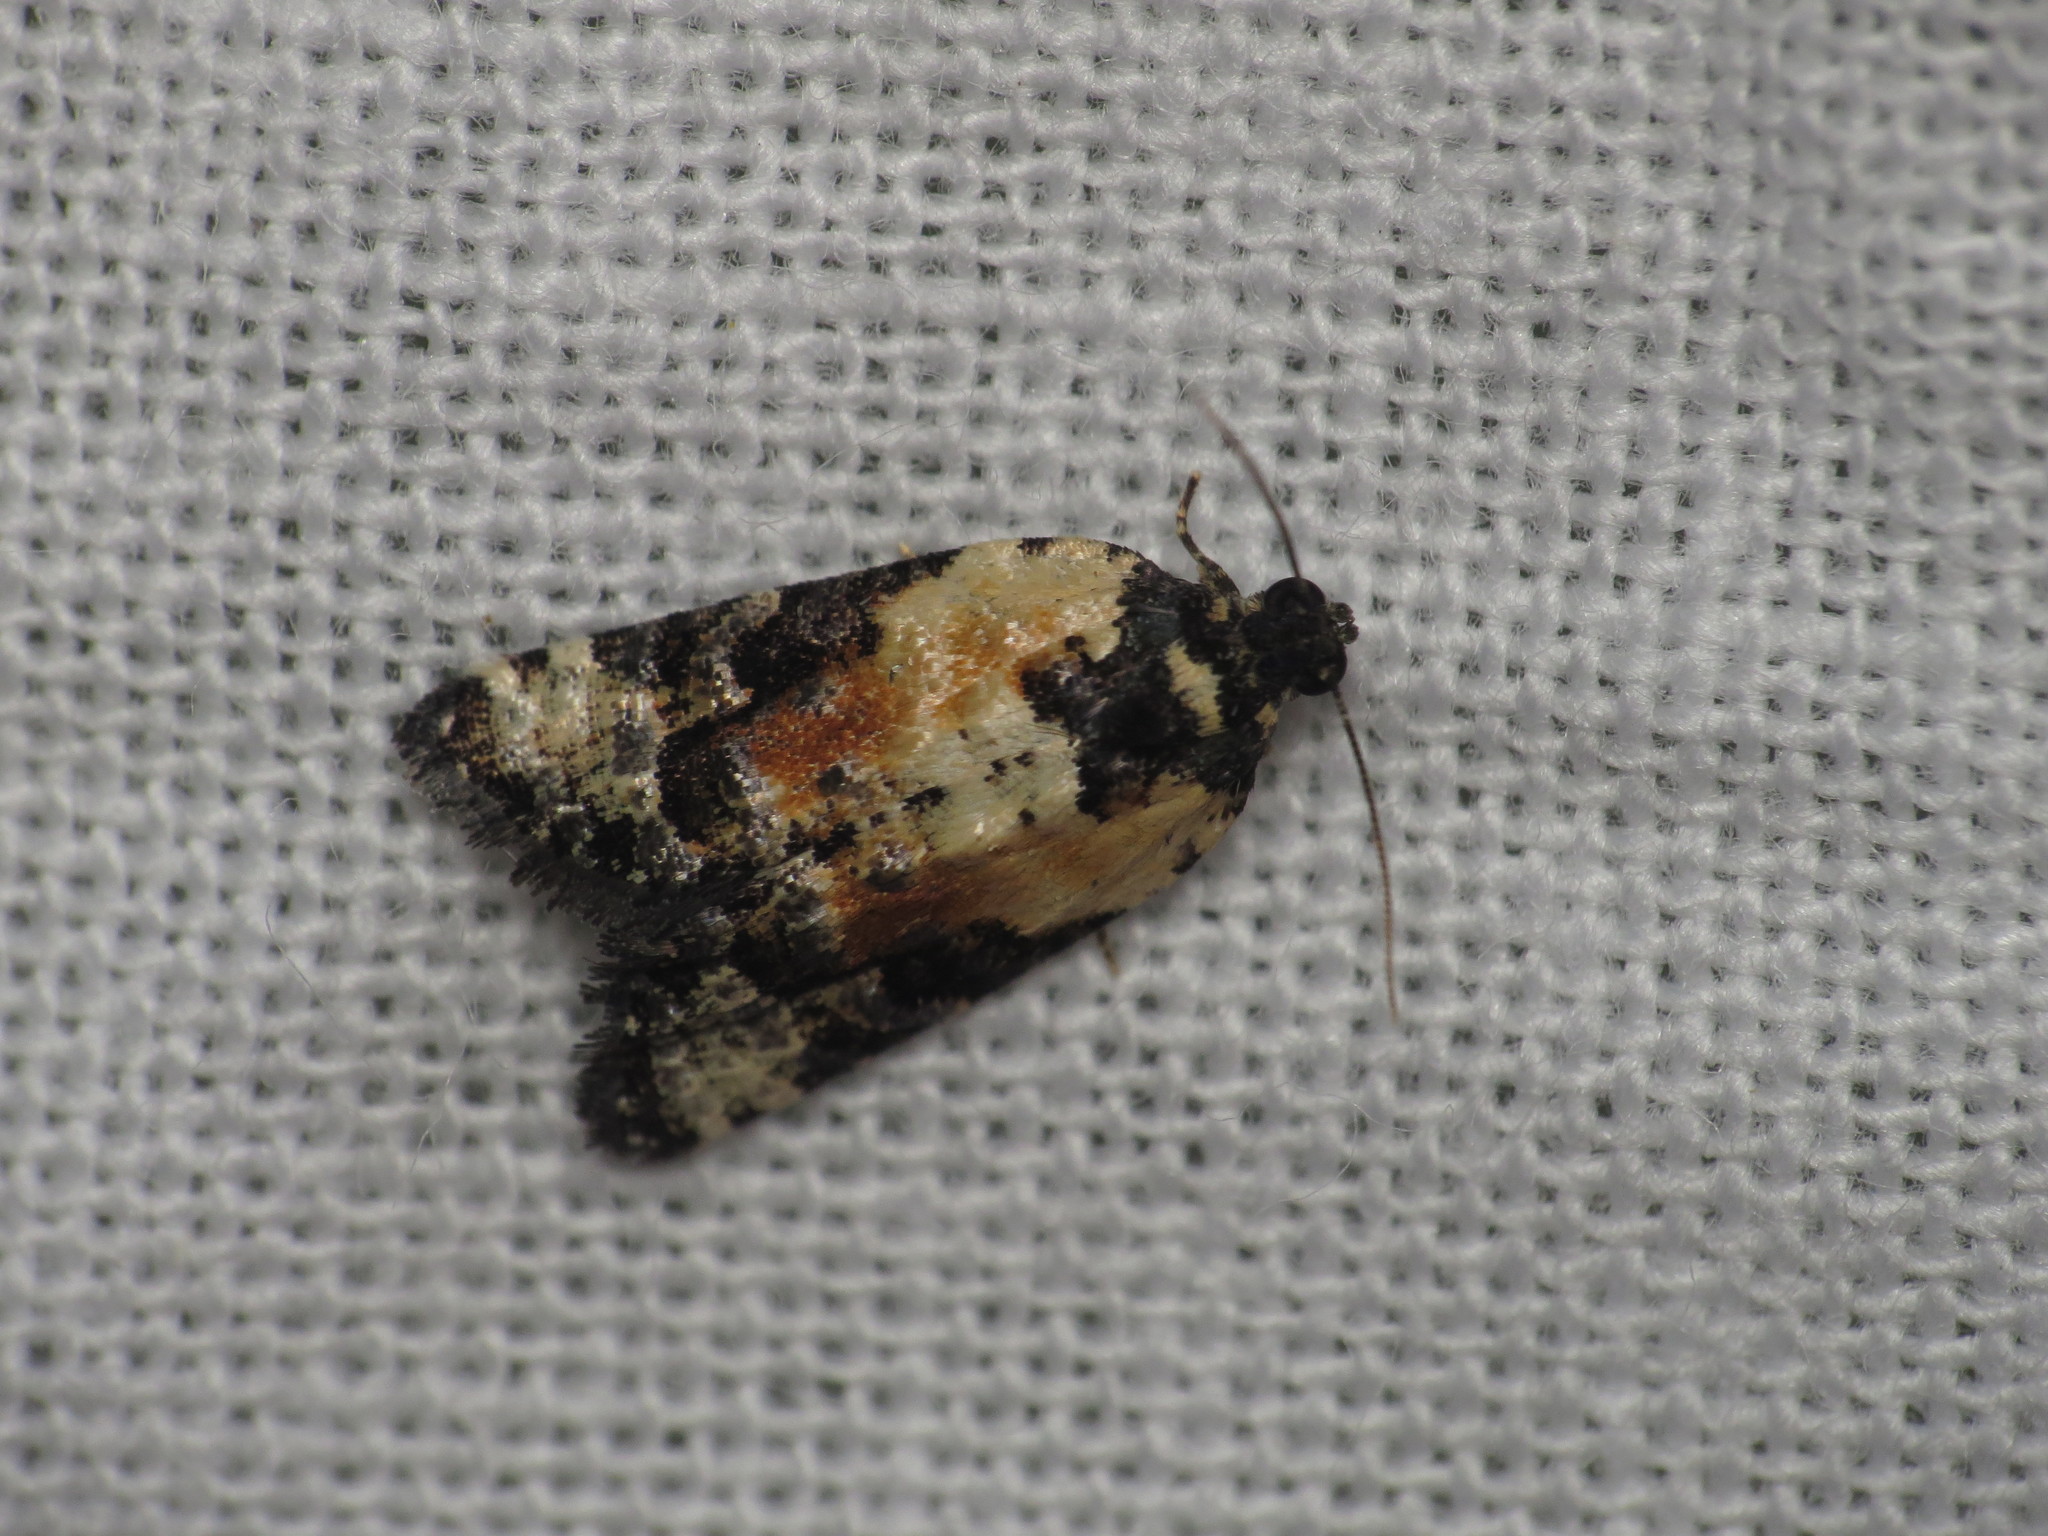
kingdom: Animalia
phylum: Arthropoda
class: Insecta
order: Lepidoptera
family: Tortricidae
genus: Asthenoptycha
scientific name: Asthenoptycha iriodes
